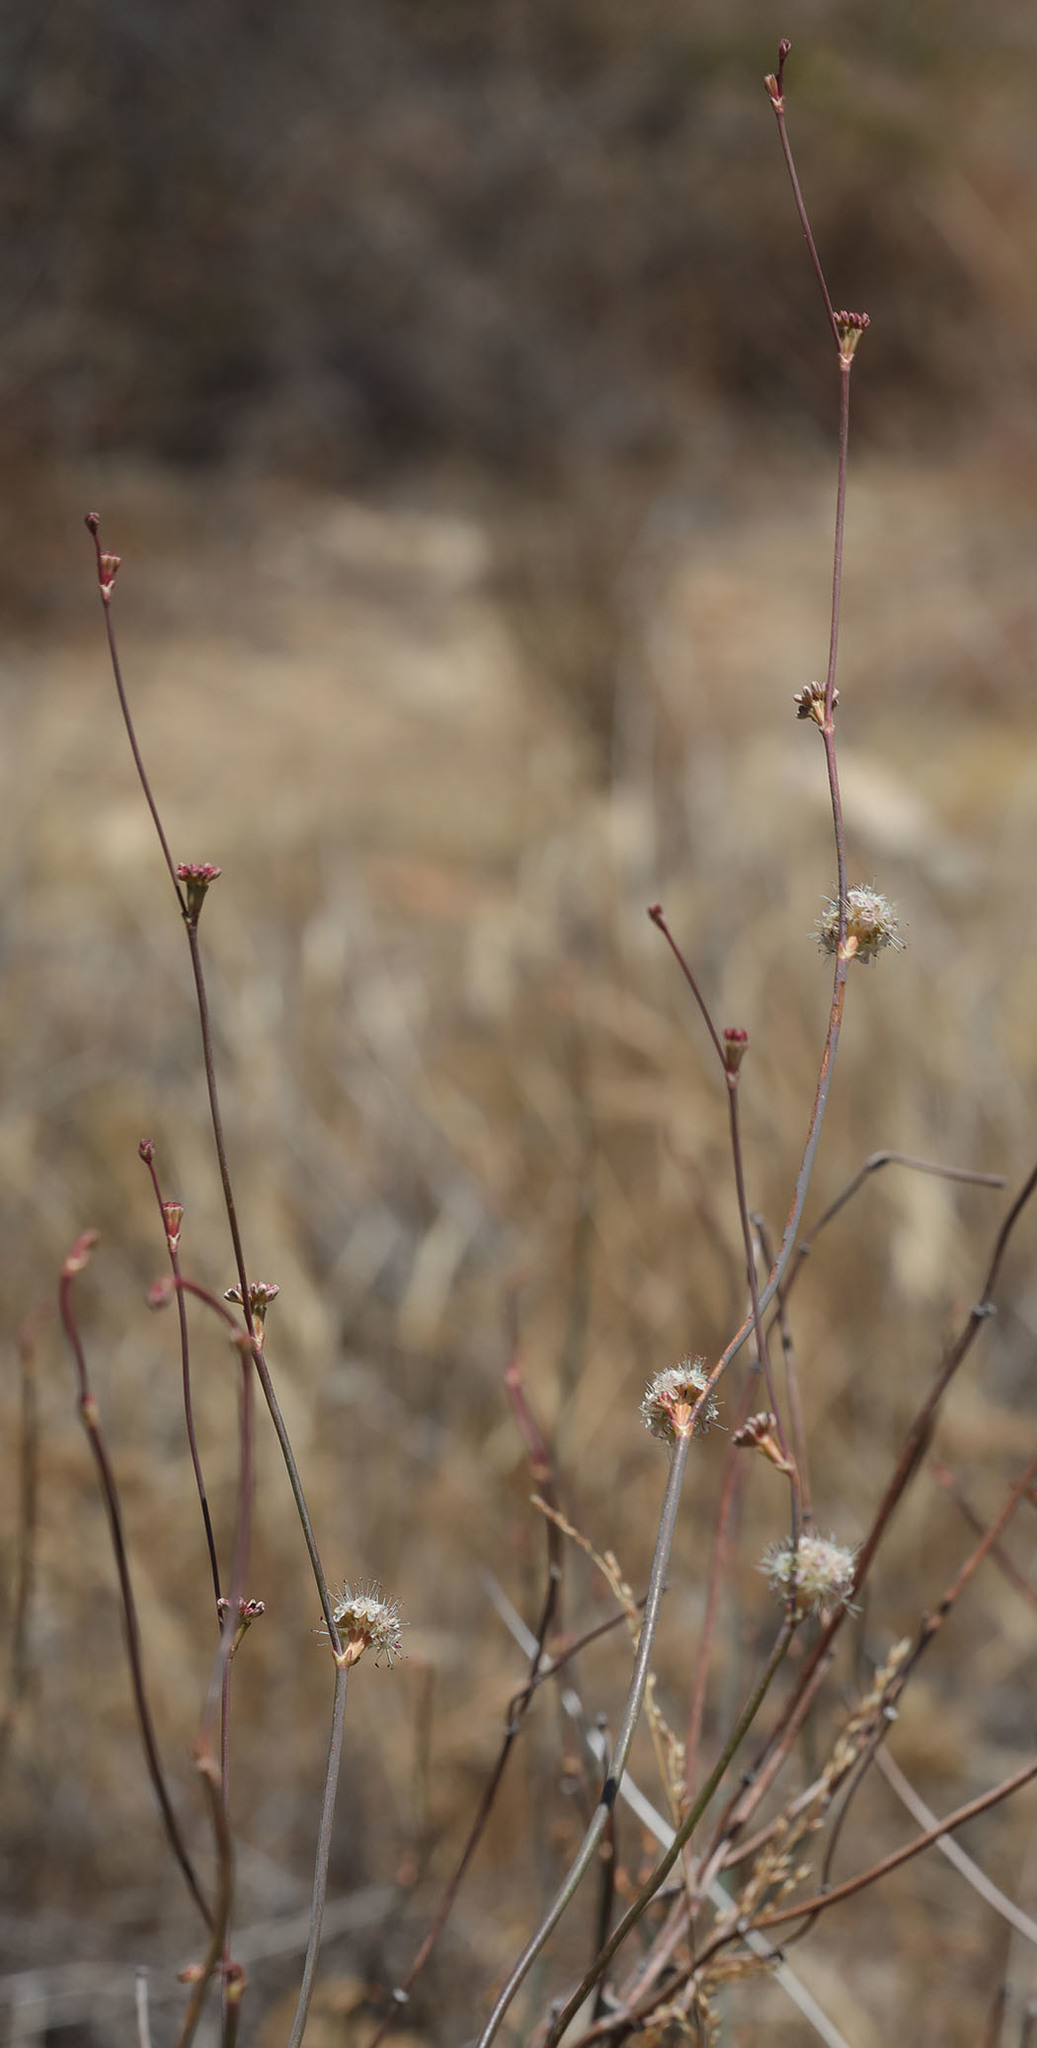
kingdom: Plantae
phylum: Tracheophyta
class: Magnoliopsida
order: Caryophyllales
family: Polygonaceae
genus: Eriogonum
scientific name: Eriogonum elongatum
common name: Long-stem wild buckwheat
